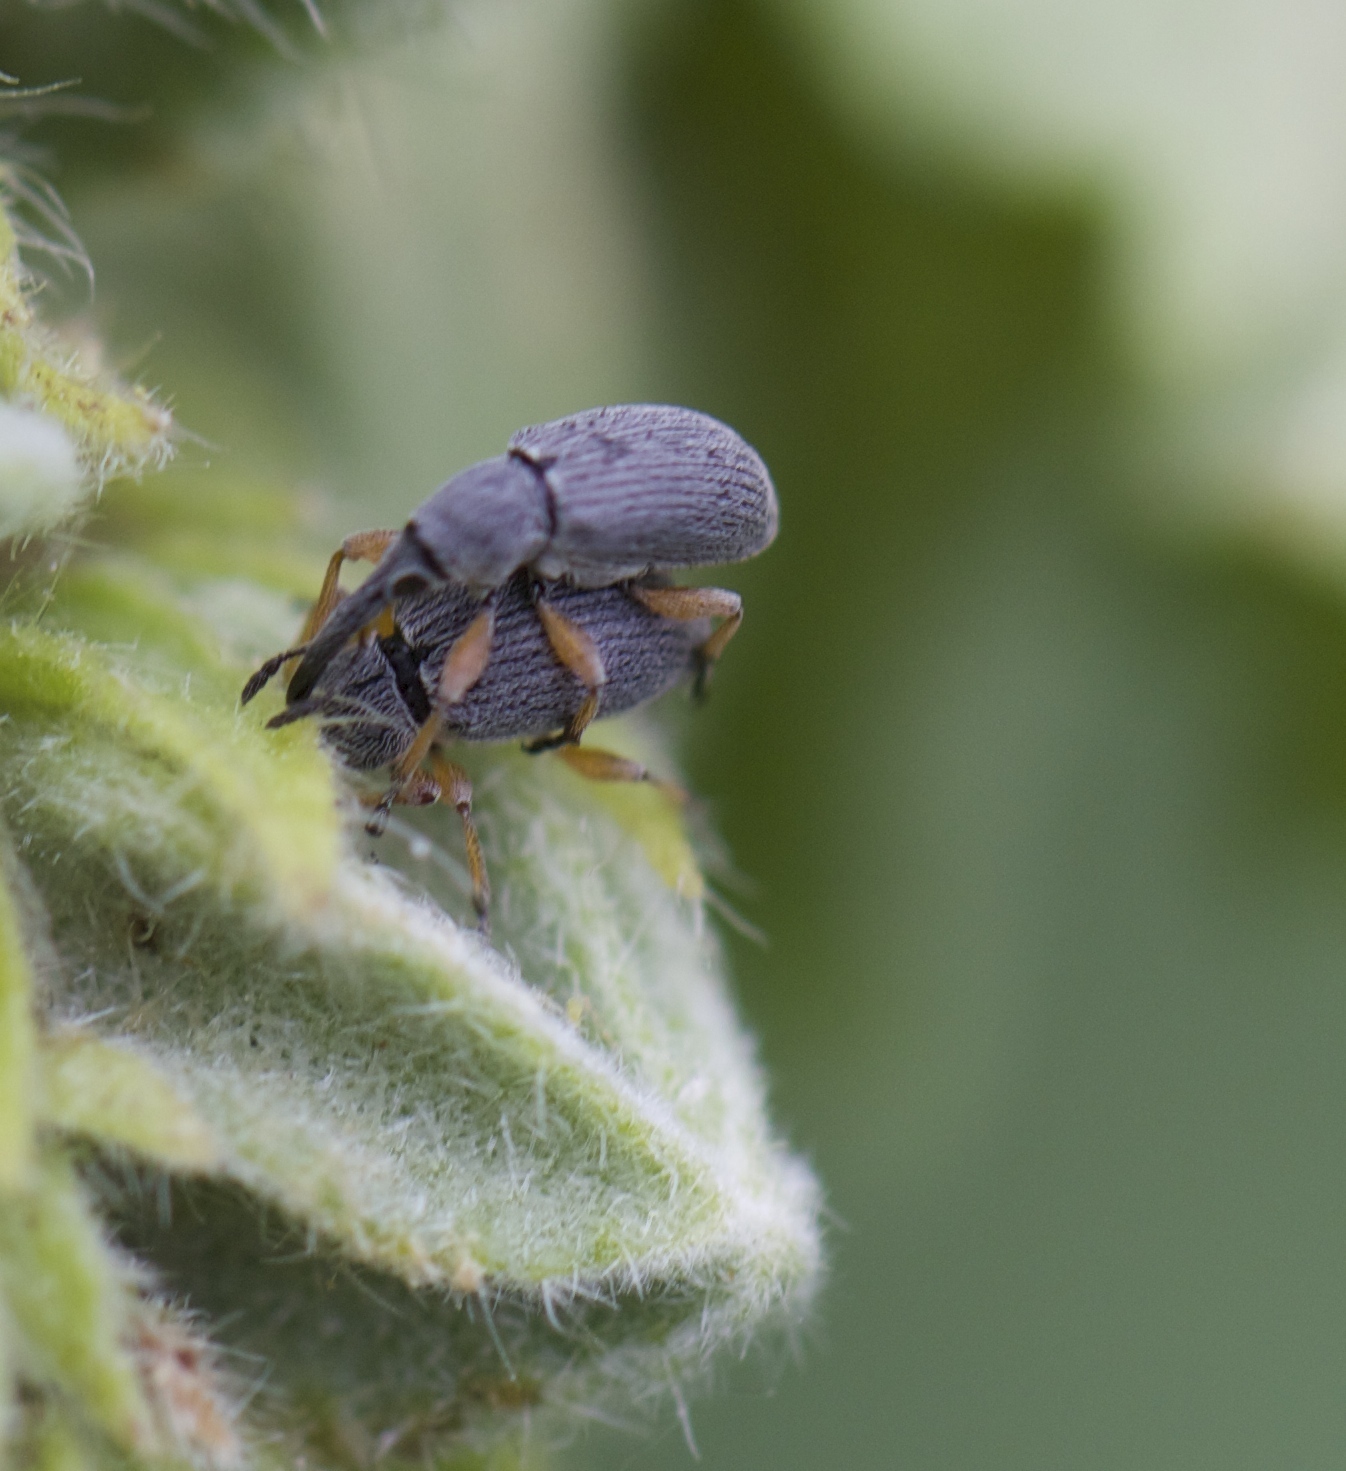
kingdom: Animalia
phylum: Arthropoda
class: Insecta
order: Coleoptera
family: Brentidae
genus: Rhopalapion
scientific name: Rhopalapion longirostre
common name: Hollyhock weevil
